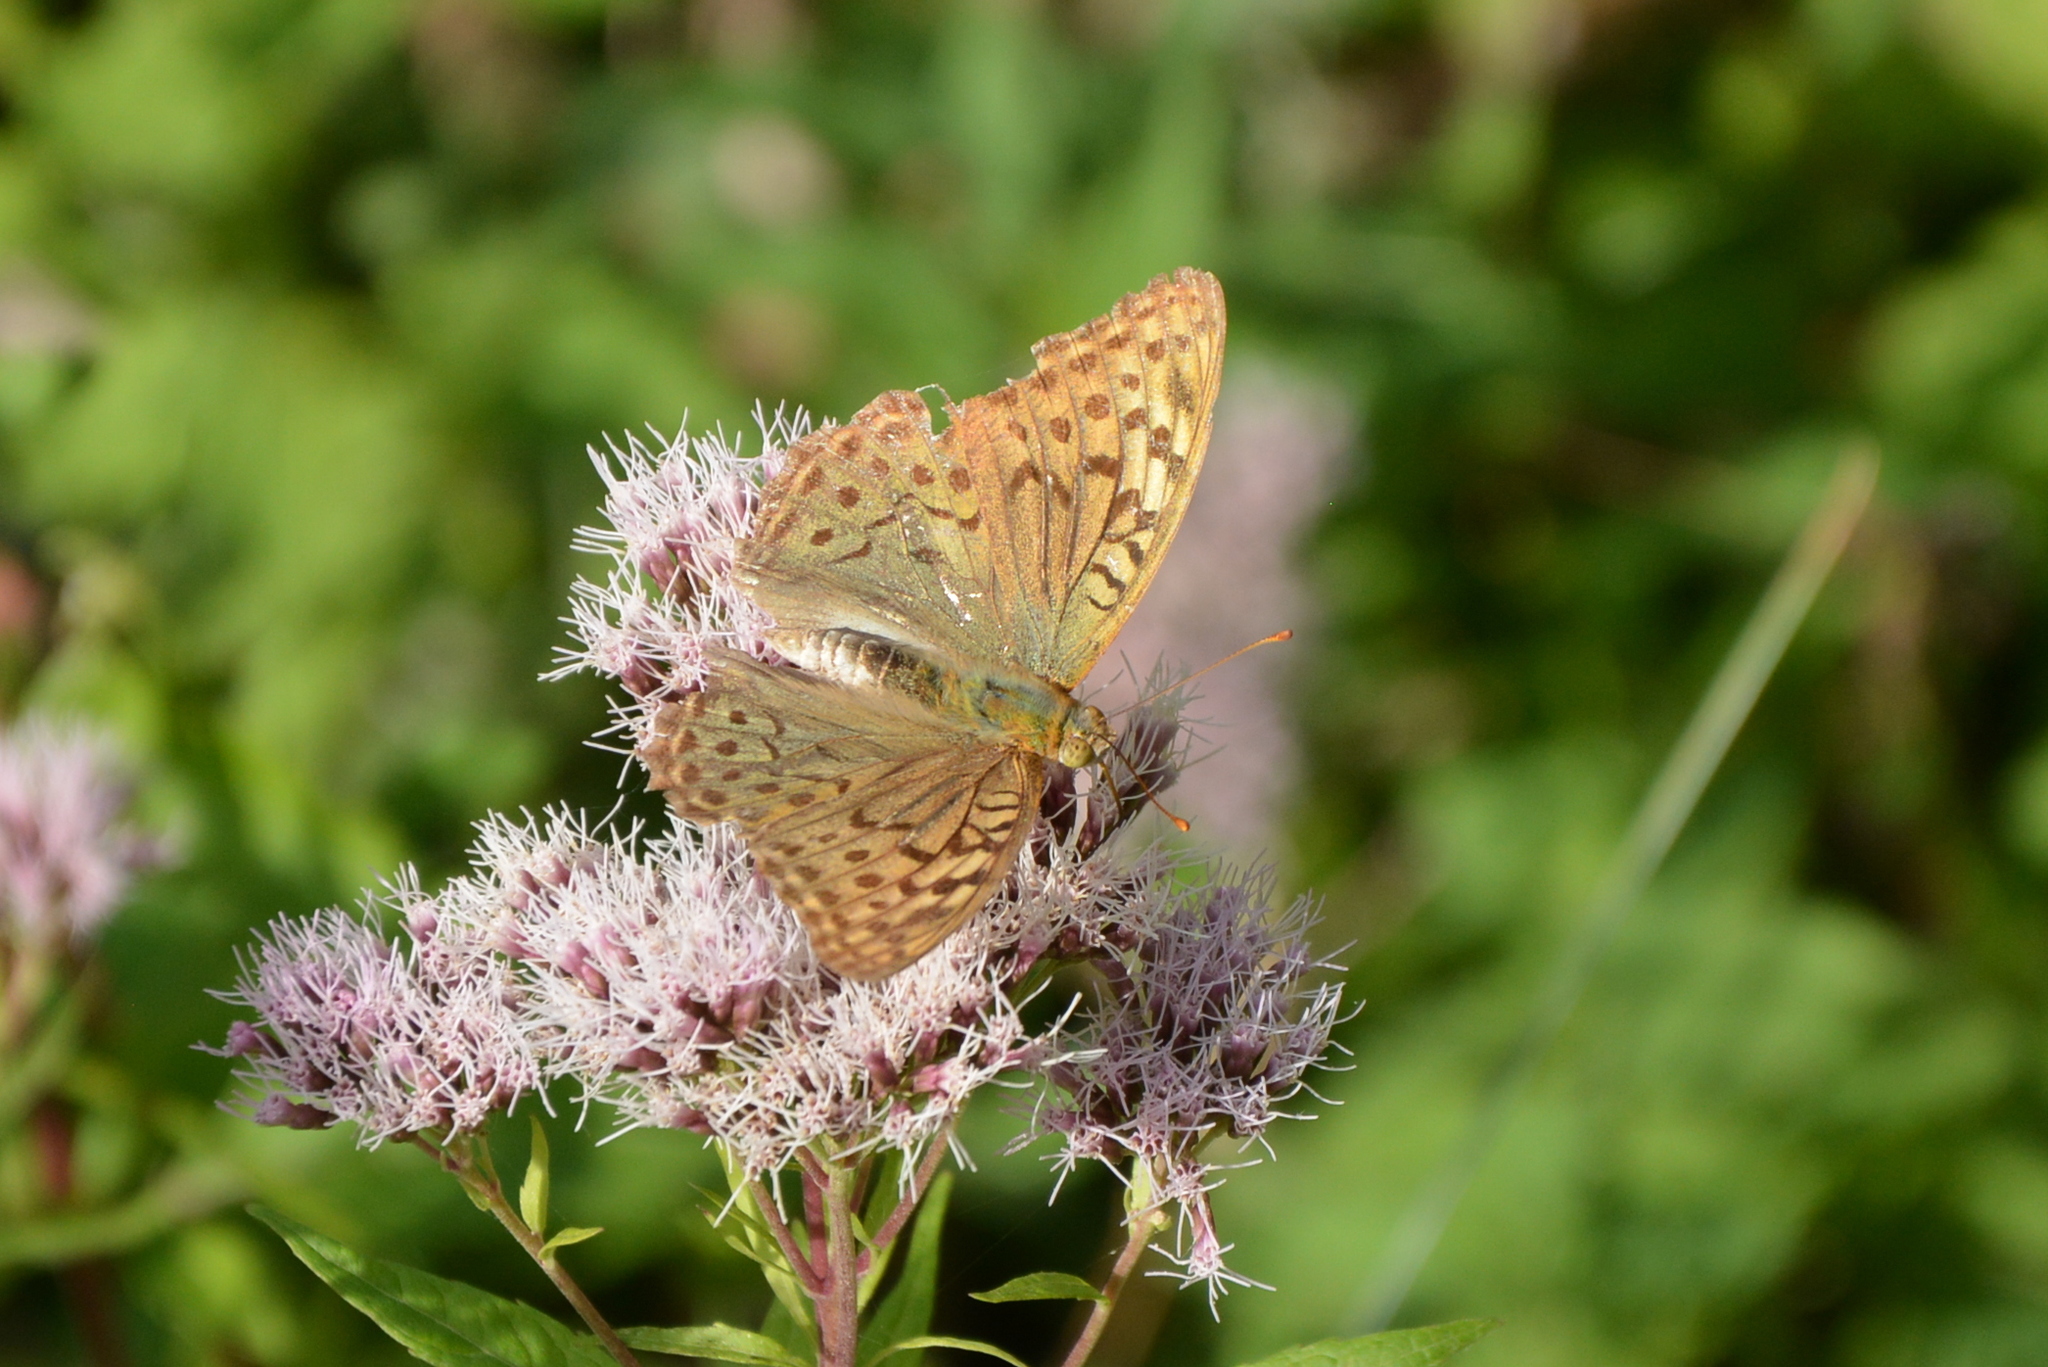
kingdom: Animalia
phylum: Arthropoda
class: Insecta
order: Lepidoptera
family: Nymphalidae
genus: Damora
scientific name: Damora pandora
